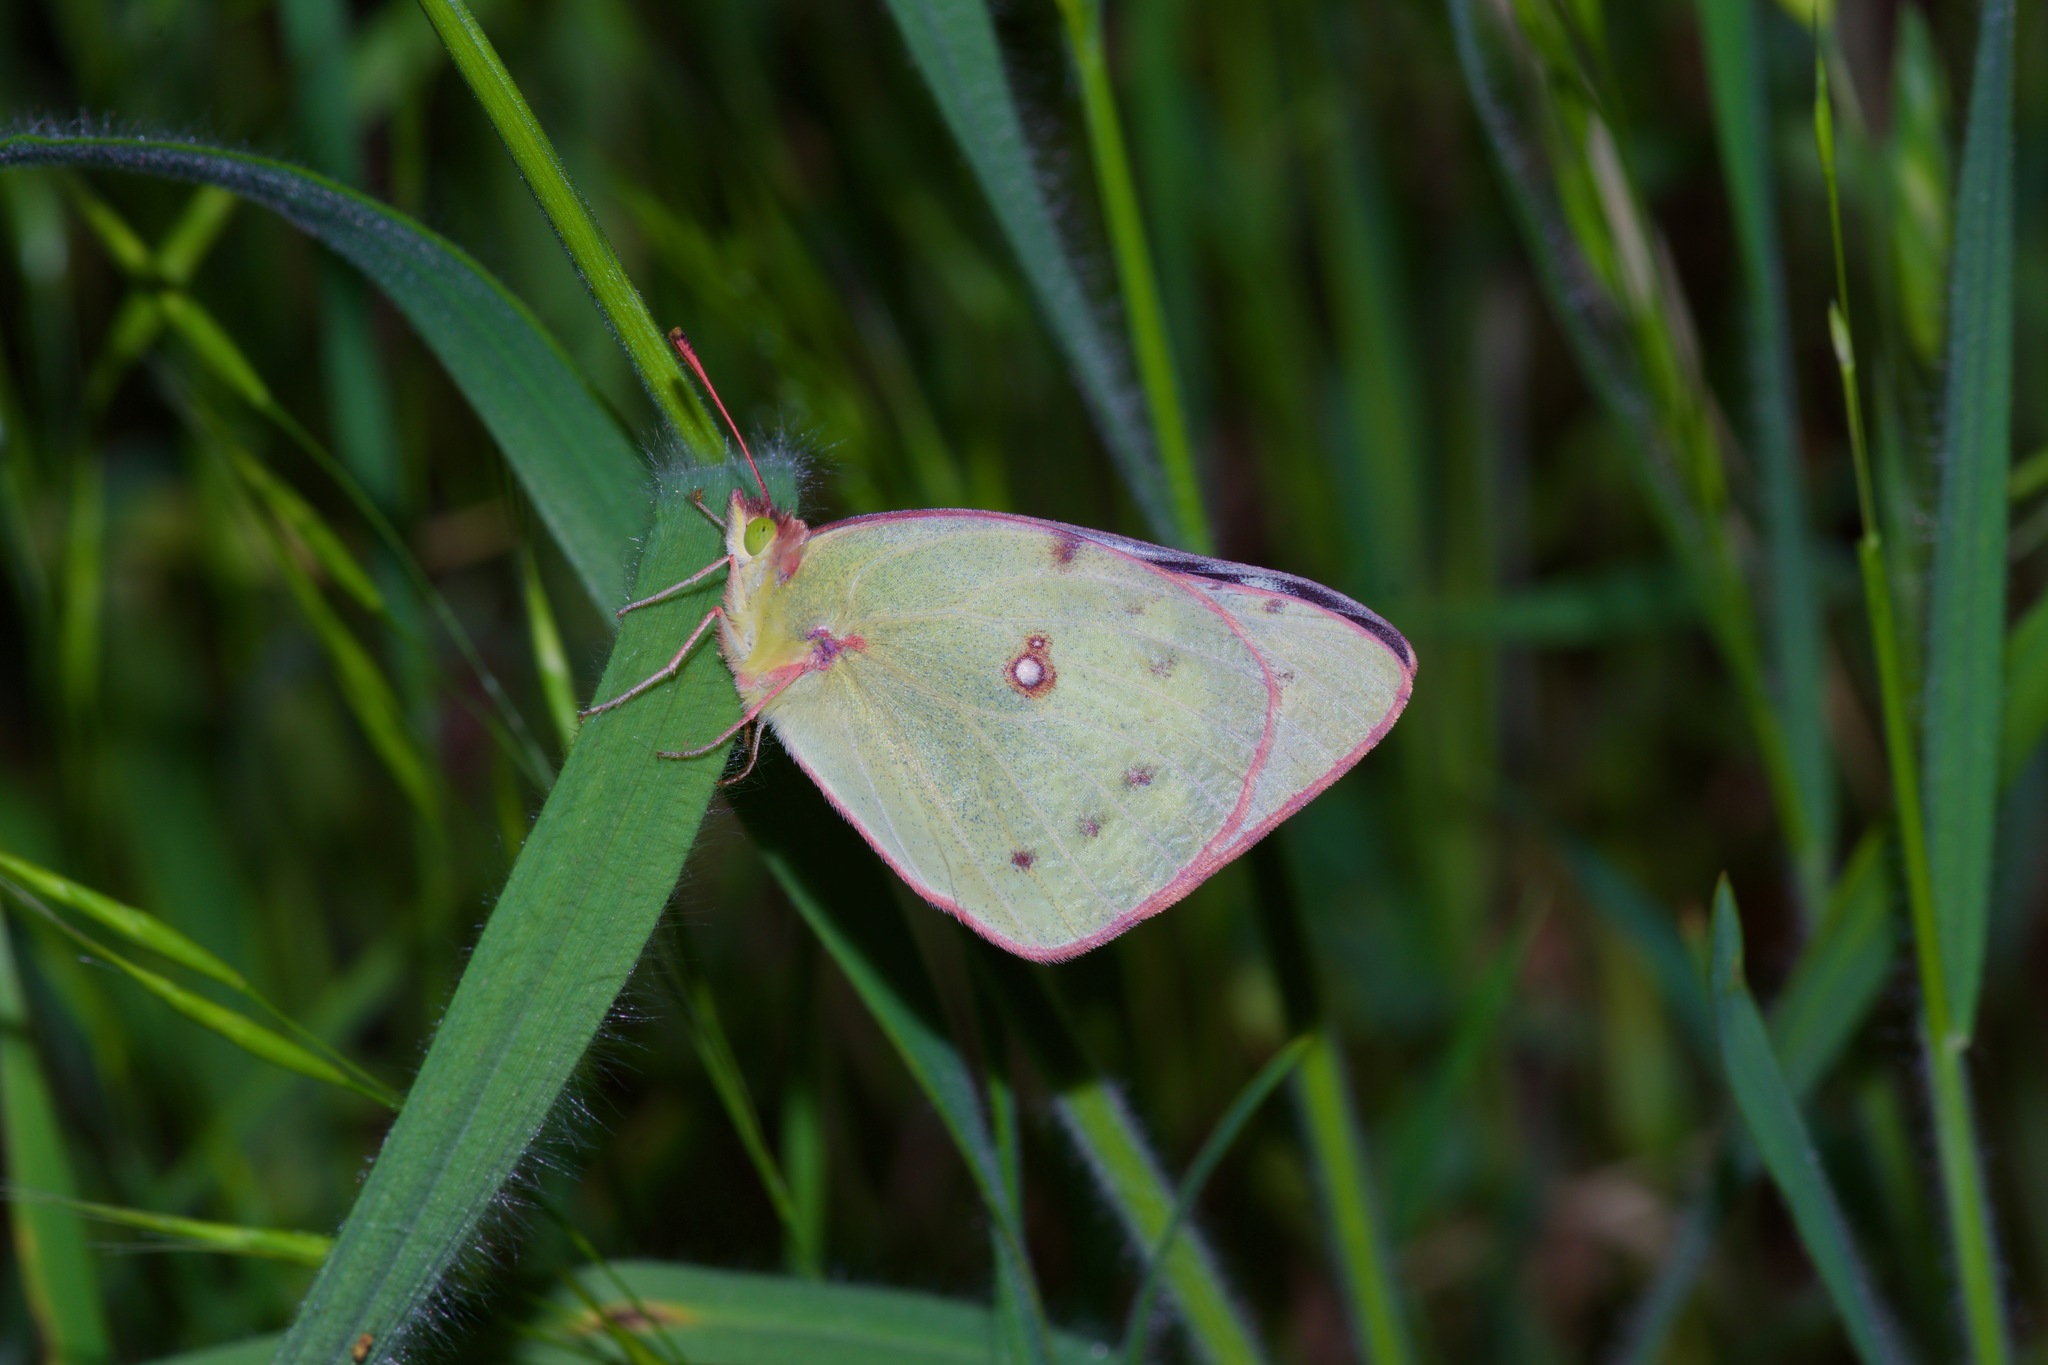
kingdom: Animalia
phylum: Arthropoda
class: Insecta
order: Lepidoptera
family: Pieridae
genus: Colias
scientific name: Colias eurytheme
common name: Alfalfa butterfly
